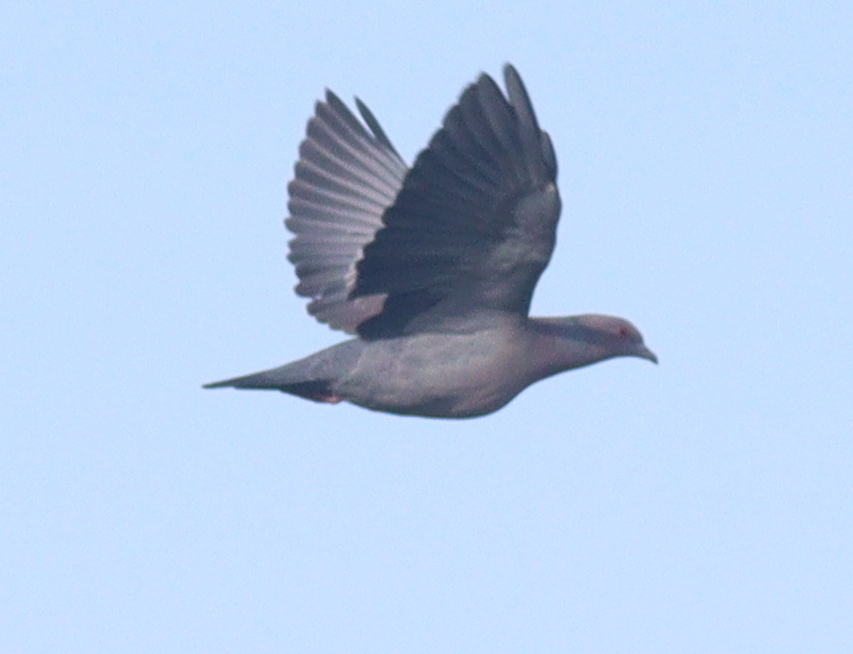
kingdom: Animalia
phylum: Chordata
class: Aves
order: Columbiformes
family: Columbidae
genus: Patagioenas
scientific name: Patagioenas picazuro
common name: Picazuro pigeon
